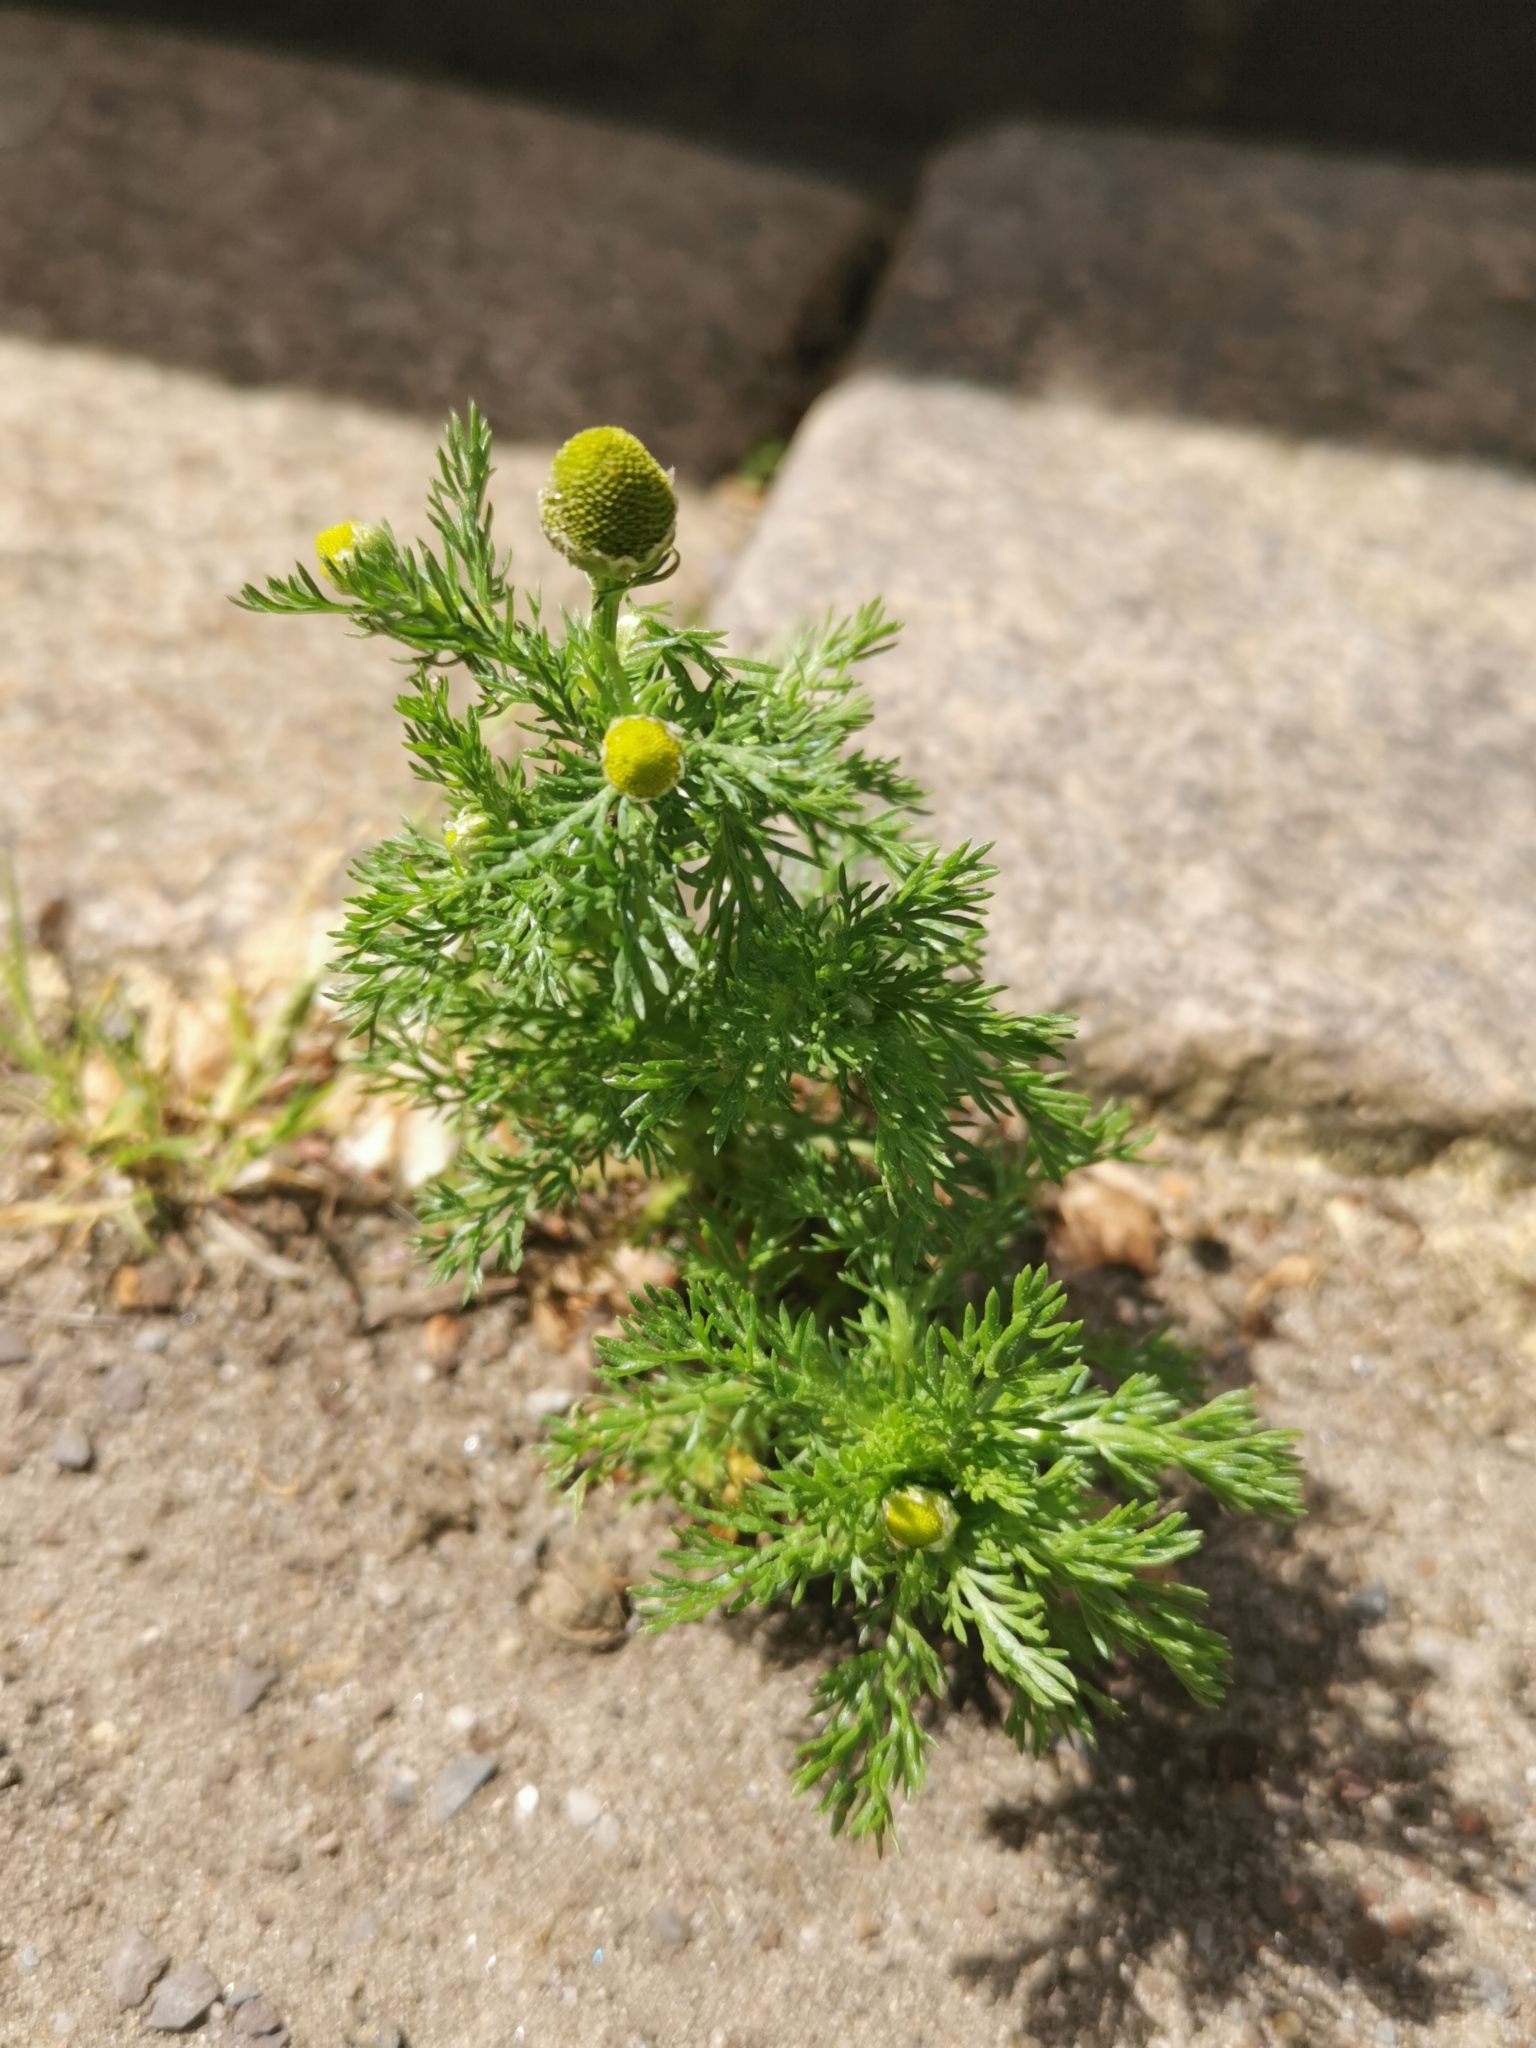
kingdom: Plantae
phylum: Tracheophyta
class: Magnoliopsida
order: Asterales
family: Asteraceae
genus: Matricaria
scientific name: Matricaria discoidea
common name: Disc mayweed
